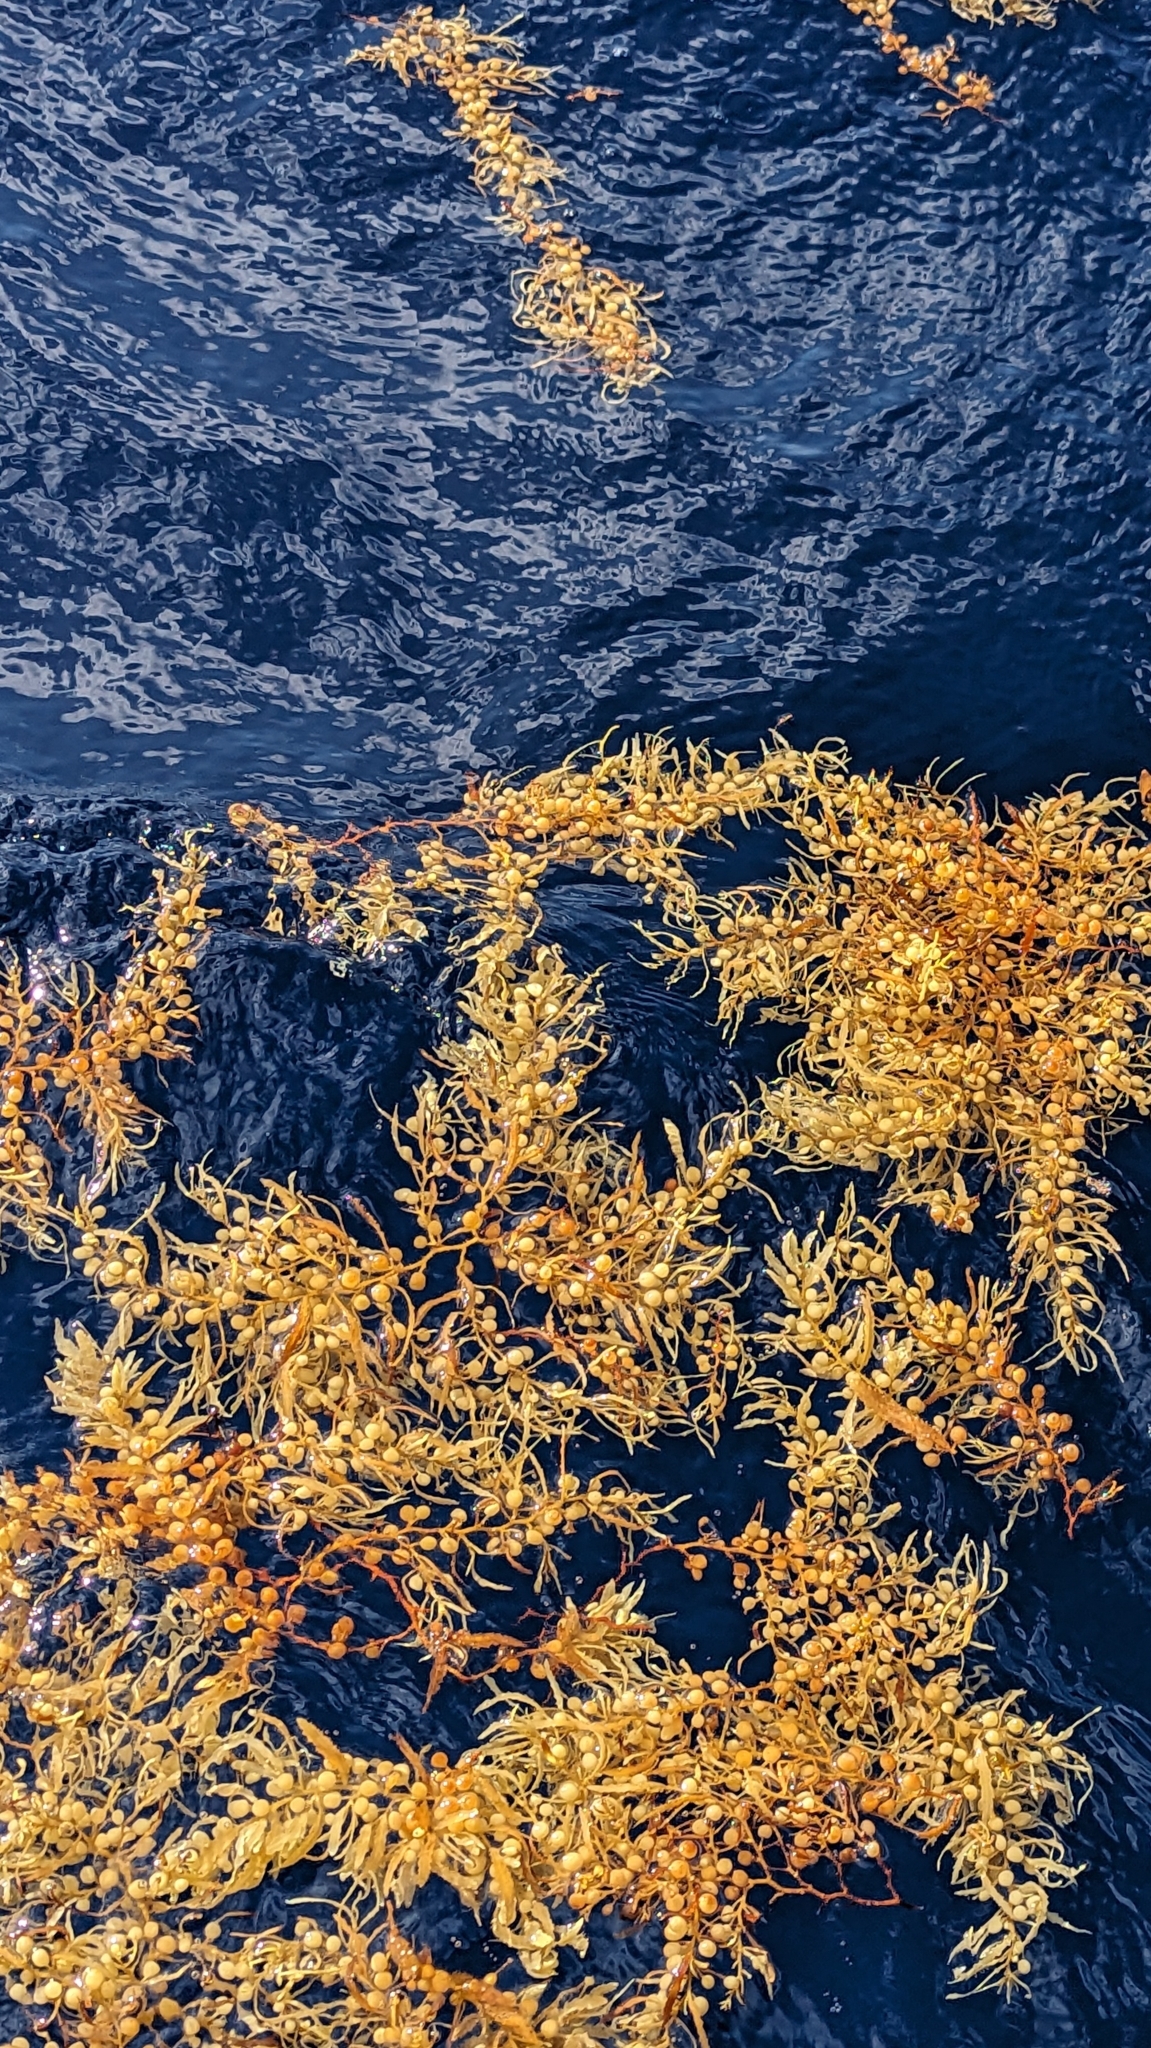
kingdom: Chromista
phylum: Ochrophyta
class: Phaeophyceae
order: Fucales
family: Sargassaceae
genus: Sargassum
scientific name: Sargassum fluitans
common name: Sargassum seaweed
